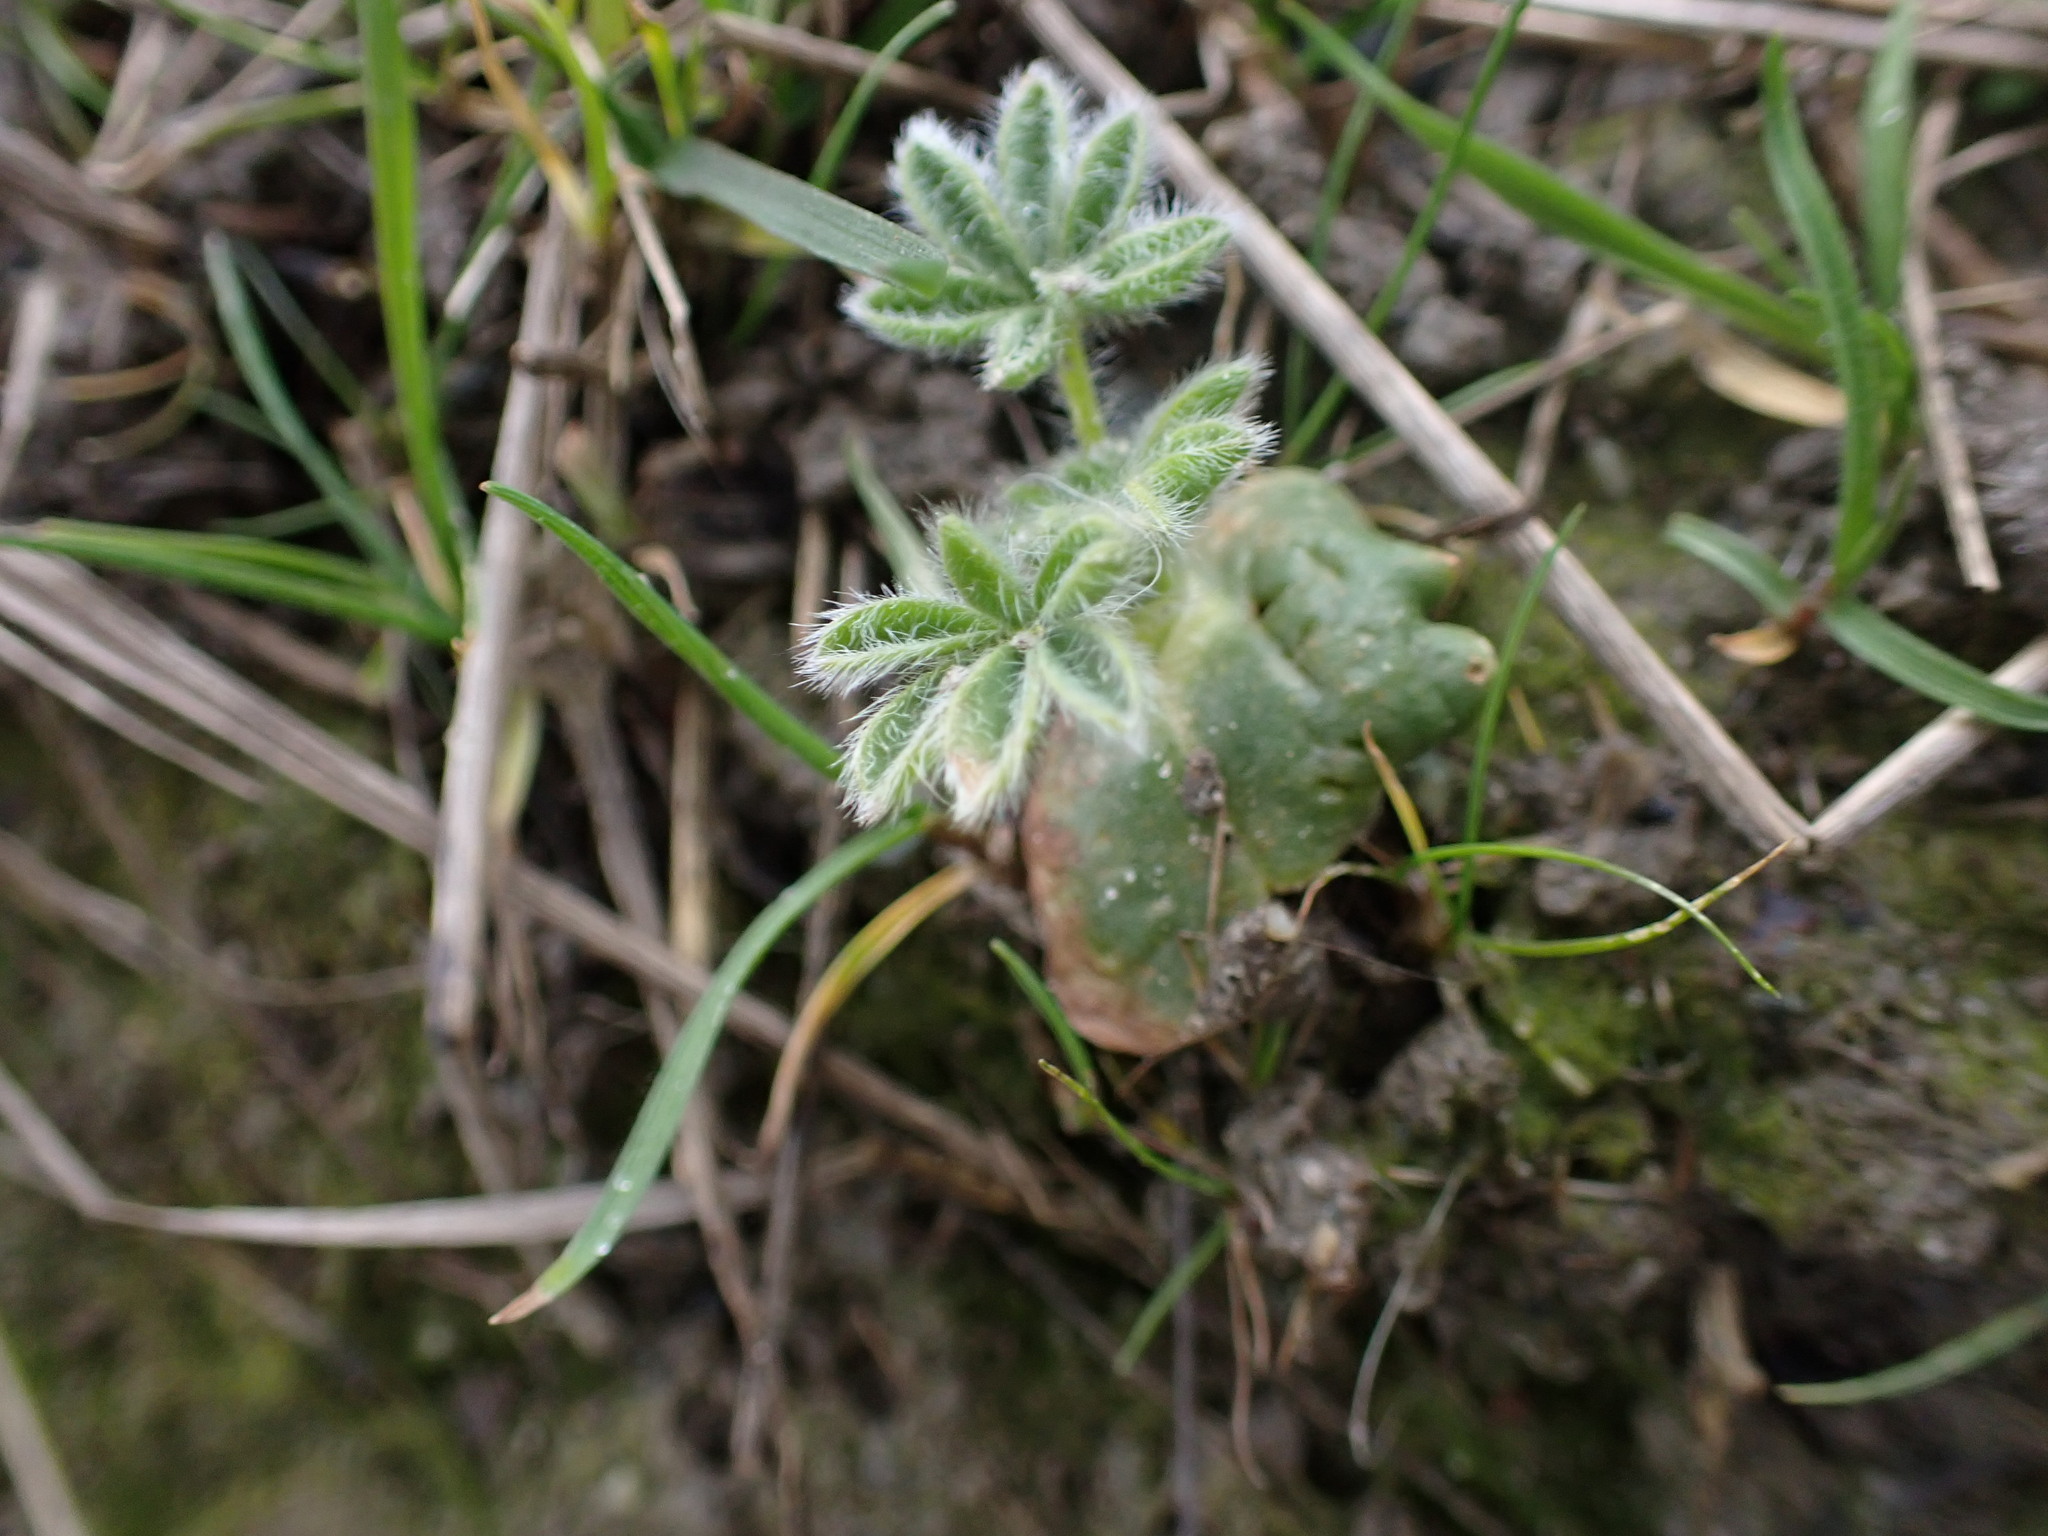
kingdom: Plantae
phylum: Tracheophyta
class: Magnoliopsida
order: Fabales
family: Fabaceae
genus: Lupinus
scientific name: Lupinus densiflorus
